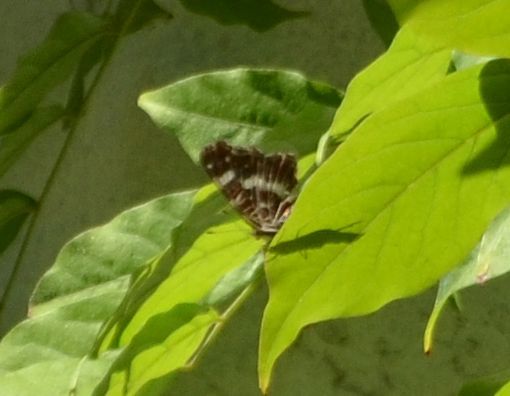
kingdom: Animalia
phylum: Arthropoda
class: Insecta
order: Lepidoptera
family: Nymphalidae
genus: Araschnia
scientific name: Araschnia levana
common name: Map butterfly
